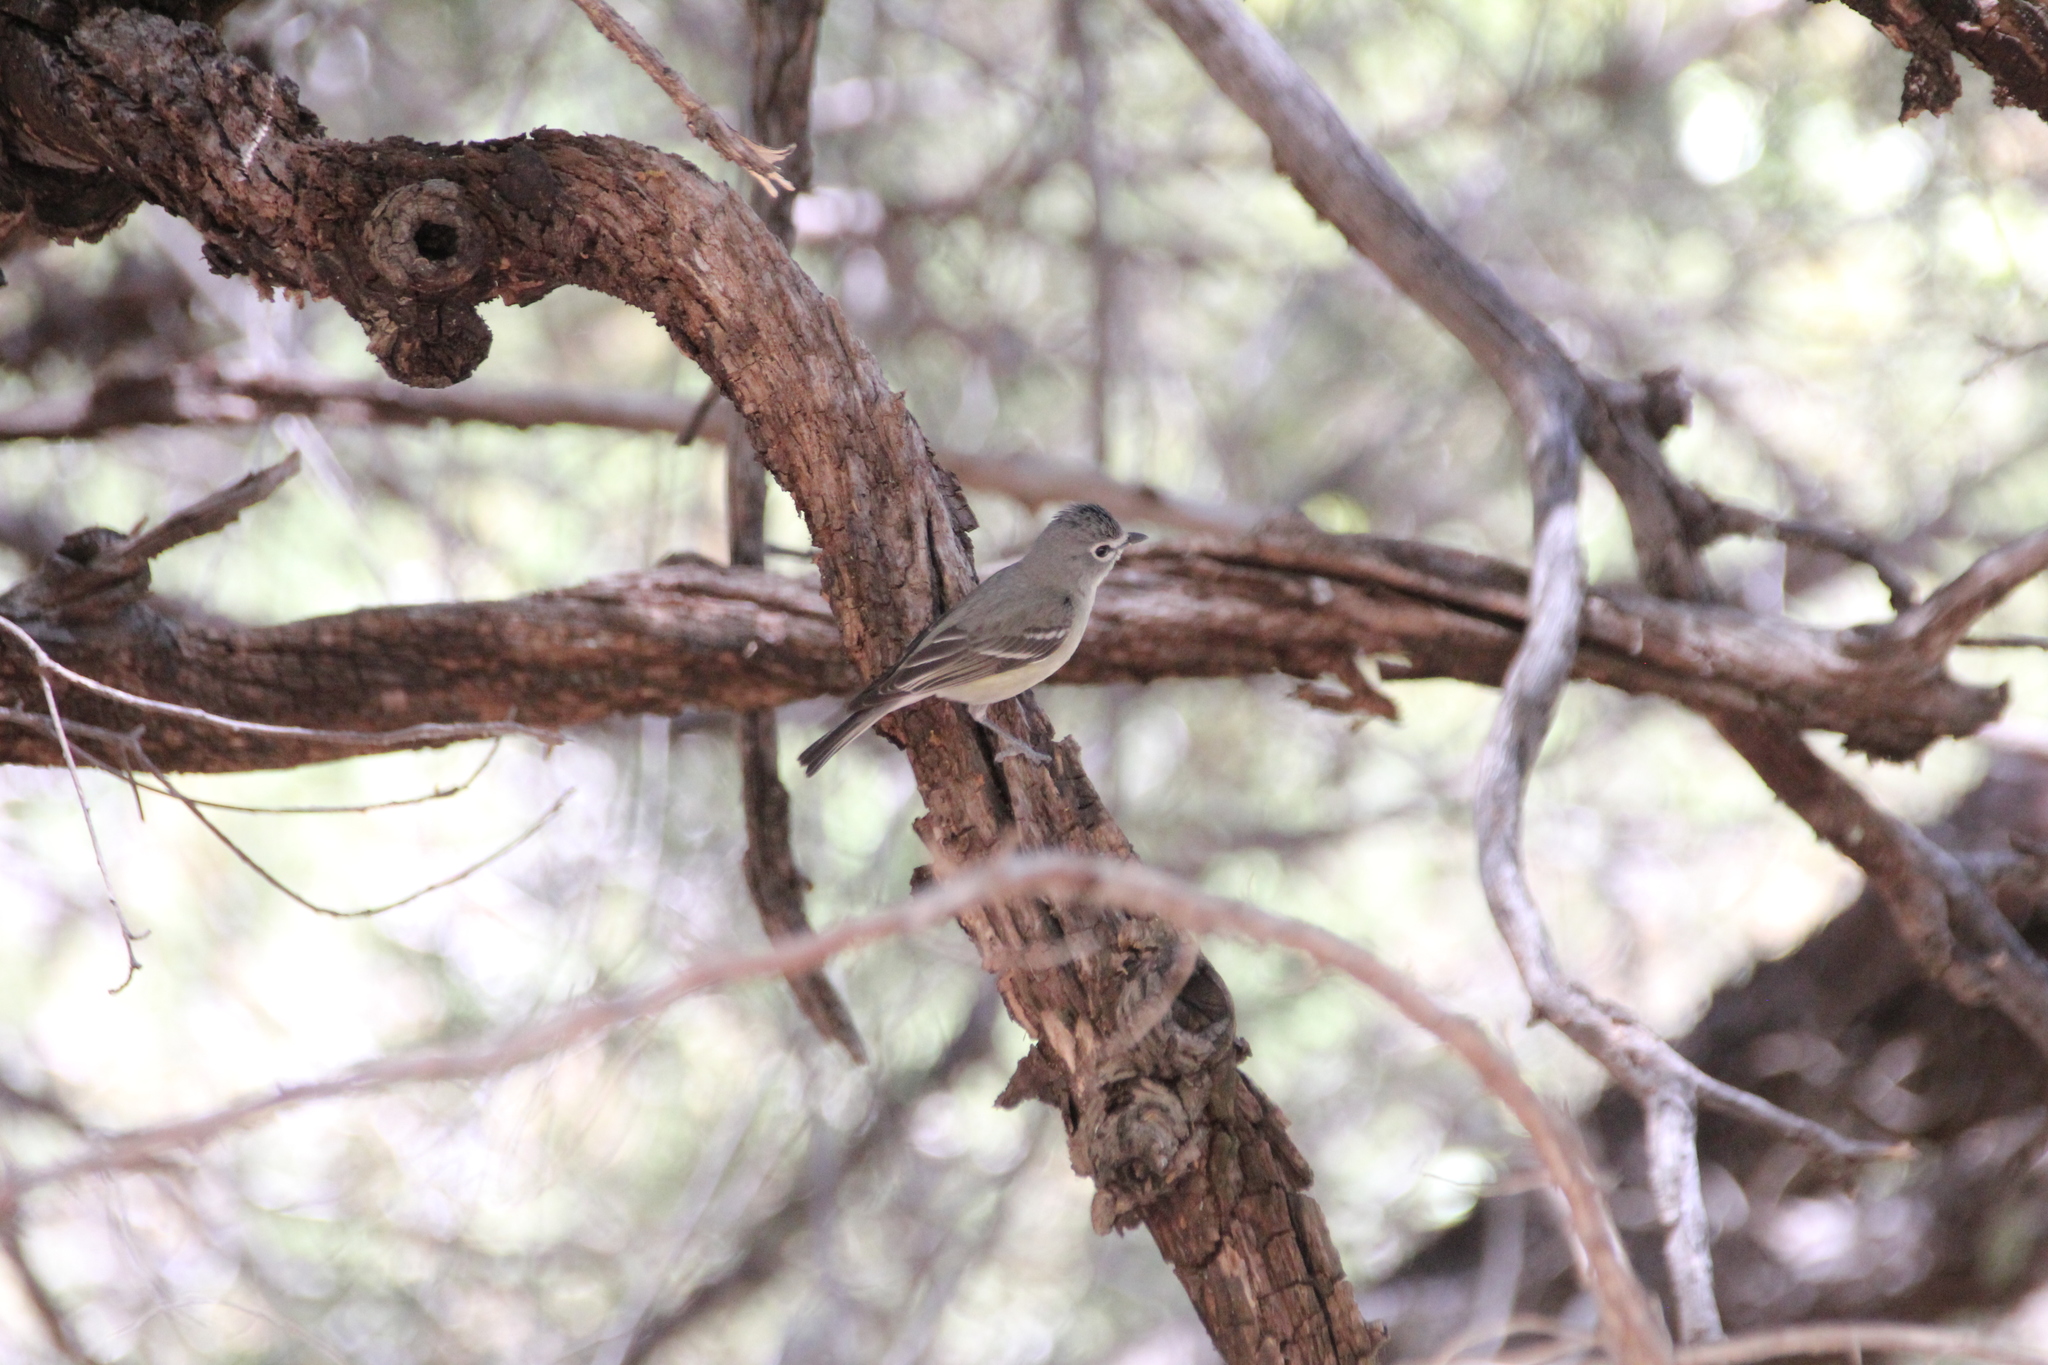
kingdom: Animalia
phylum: Chordata
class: Aves
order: Passeriformes
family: Vireonidae
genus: Vireo
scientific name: Vireo plumbeus
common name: Plumbeous vireo
